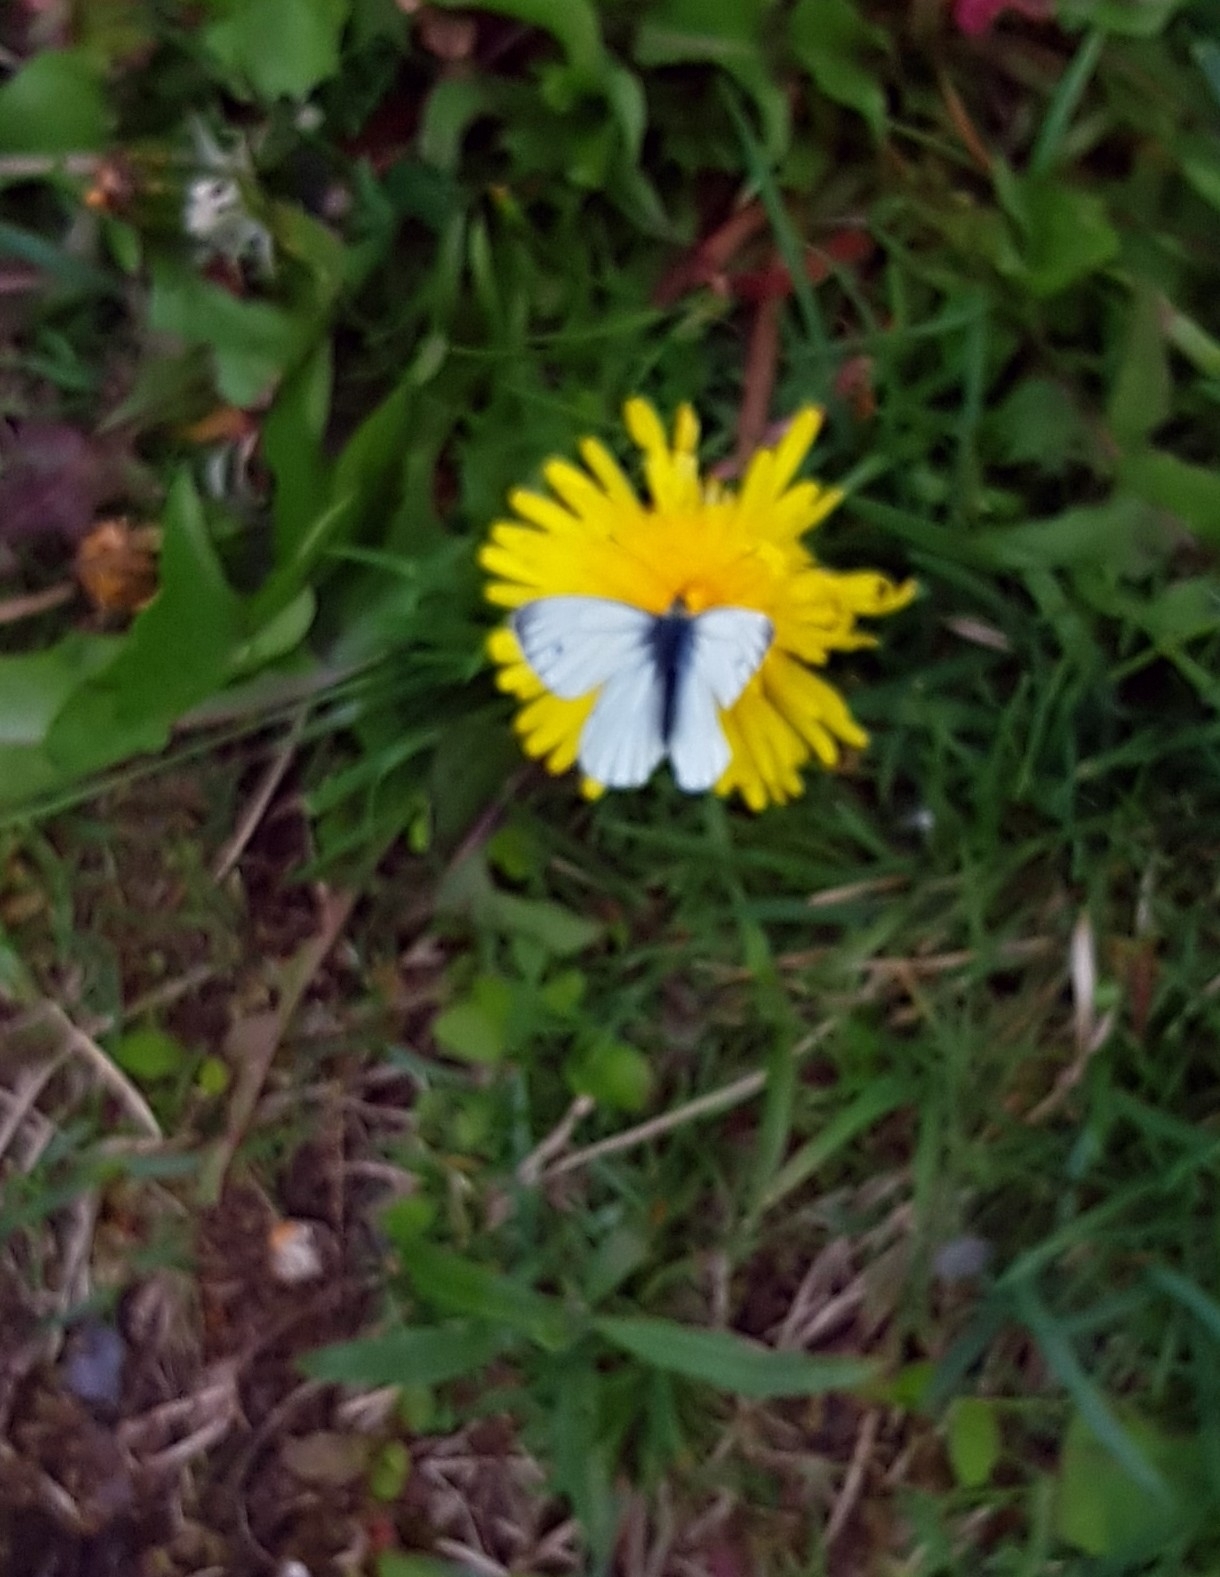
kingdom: Animalia
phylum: Arthropoda
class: Insecta
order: Lepidoptera
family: Pieridae
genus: Pieris
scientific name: Pieris napi
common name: Green-veined white
